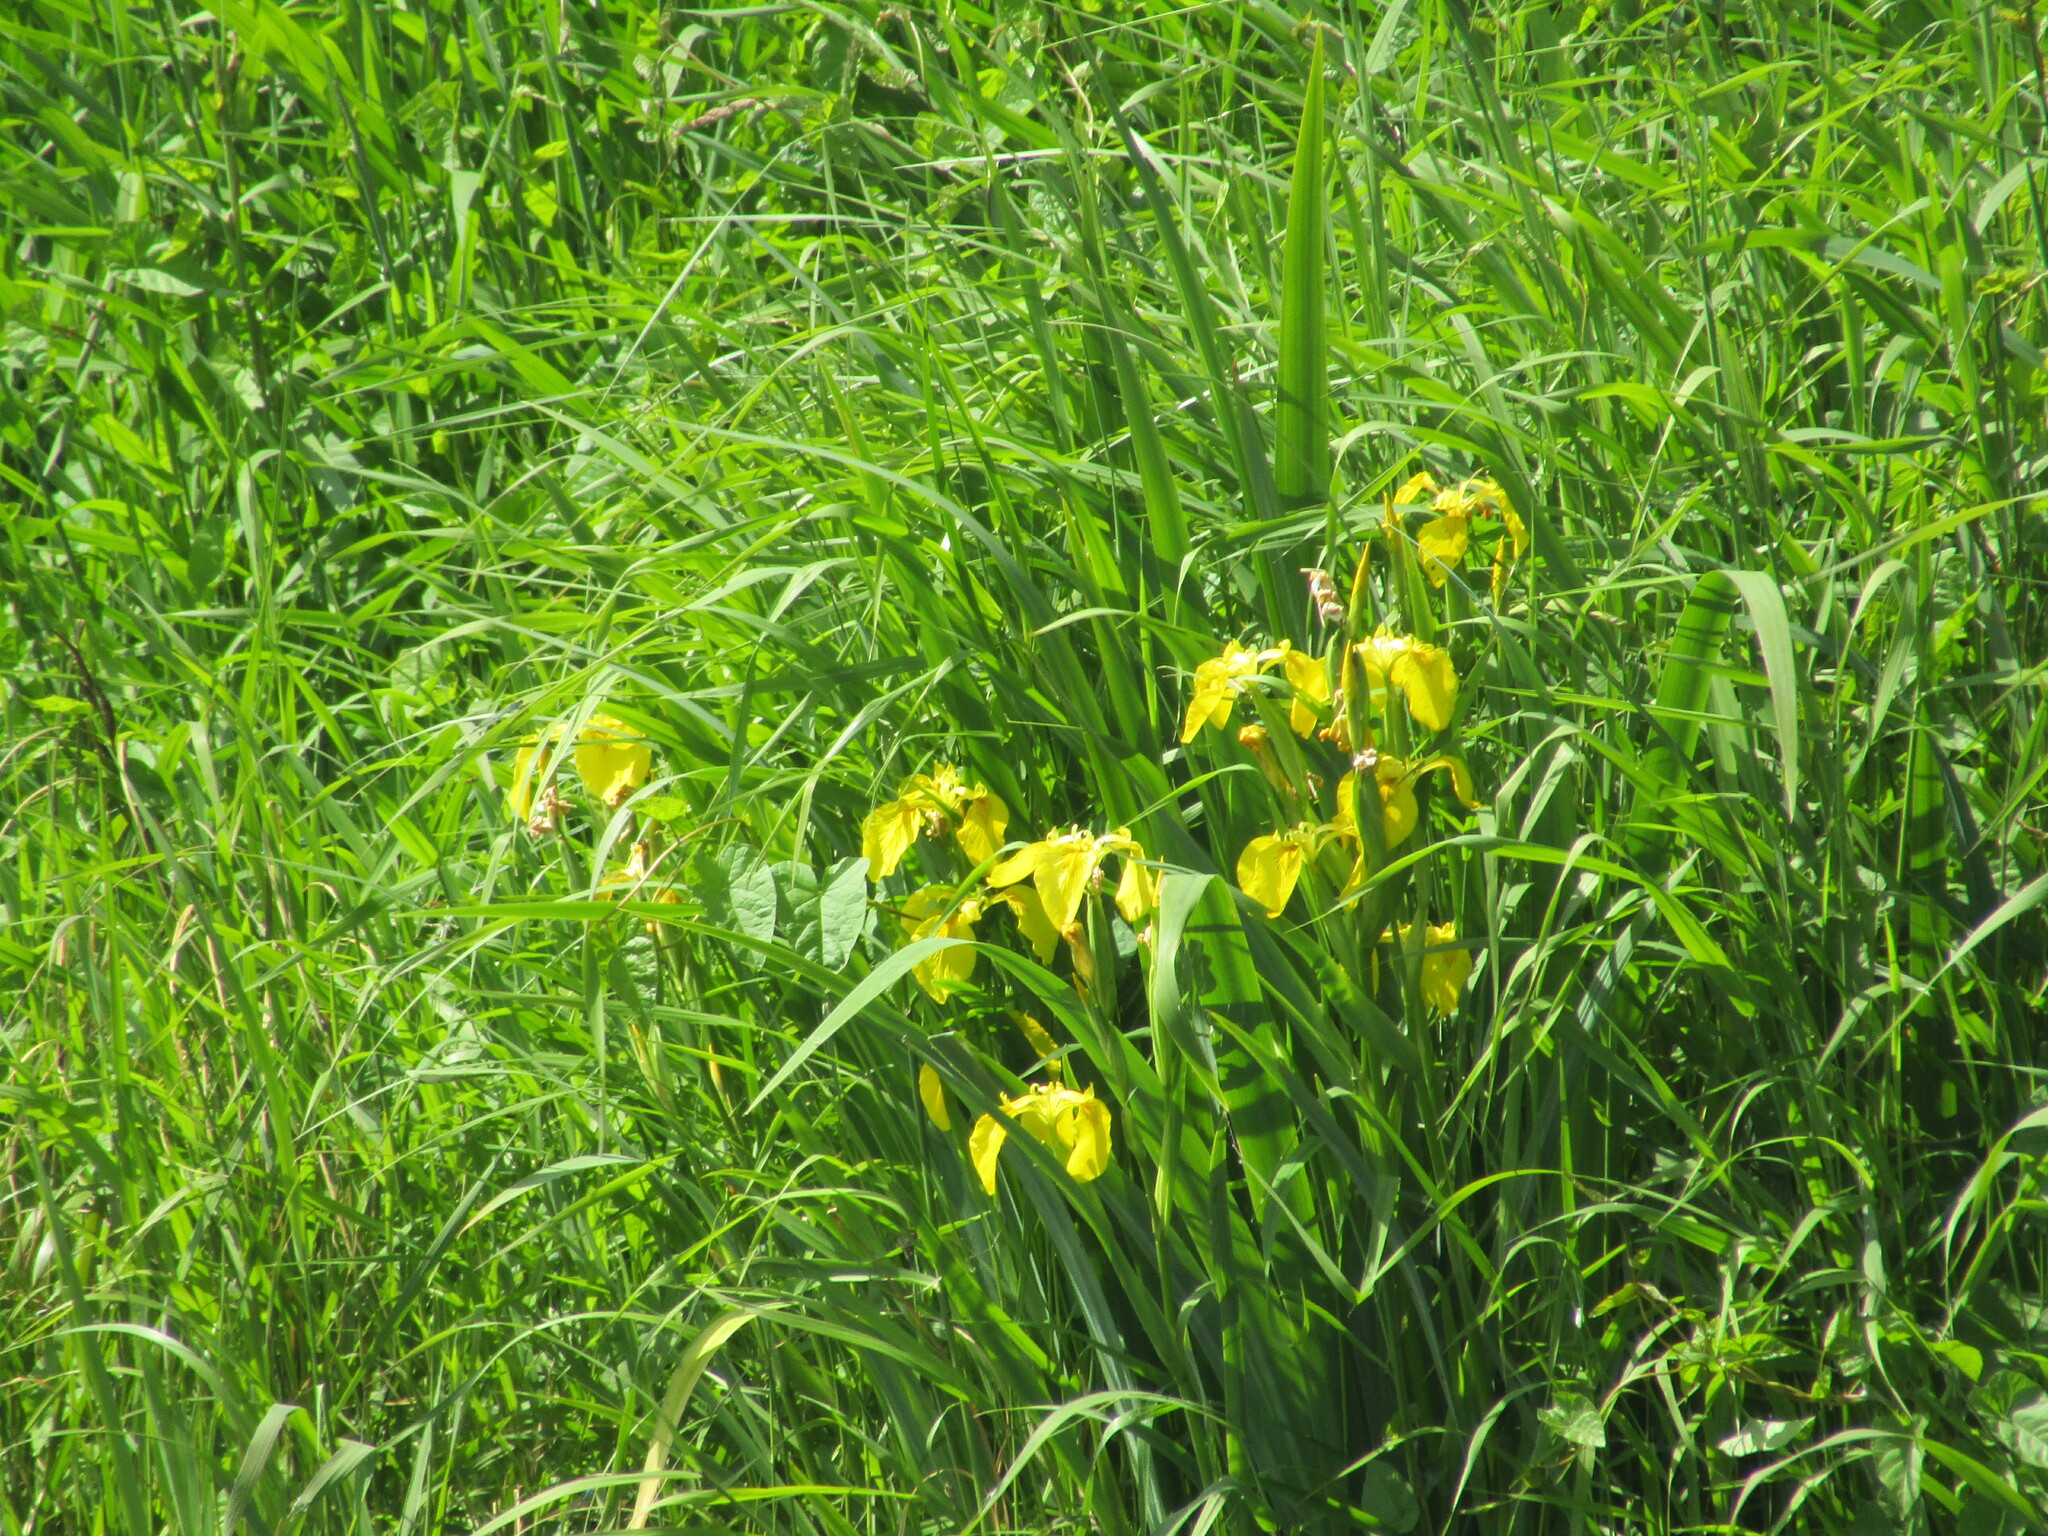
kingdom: Plantae
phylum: Tracheophyta
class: Liliopsida
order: Asparagales
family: Iridaceae
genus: Iris
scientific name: Iris pseudacorus
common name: Yellow flag
